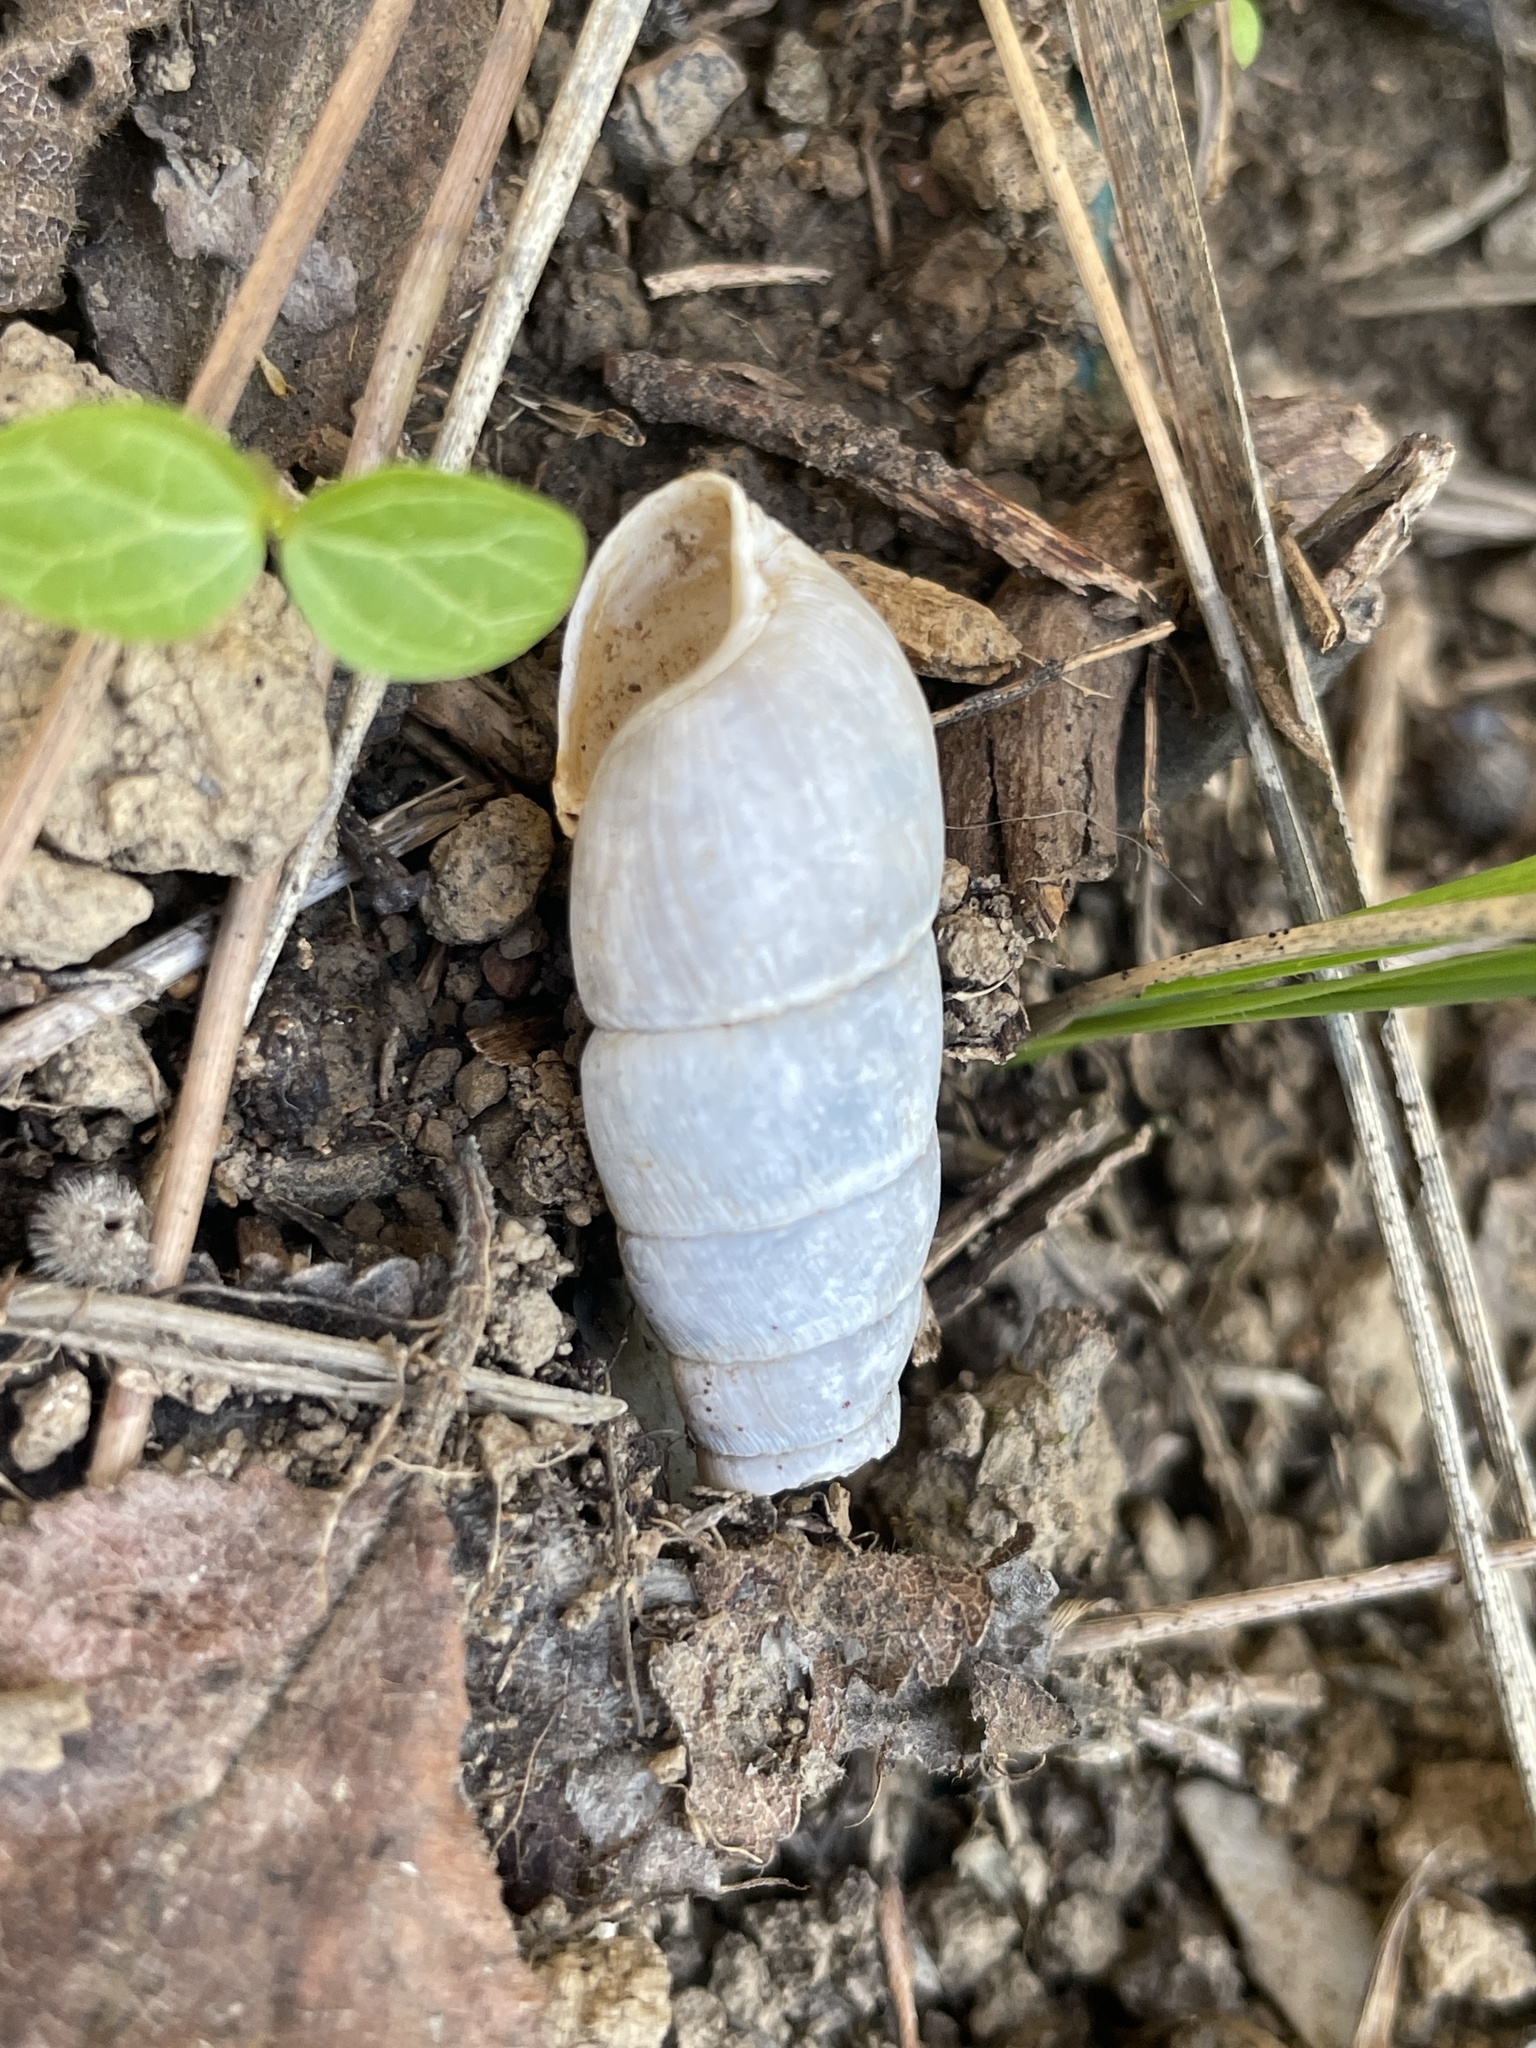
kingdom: Animalia
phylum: Mollusca
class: Gastropoda
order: Stylommatophora
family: Achatinidae
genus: Rumina
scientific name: Rumina decollata
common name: Decollate snail
